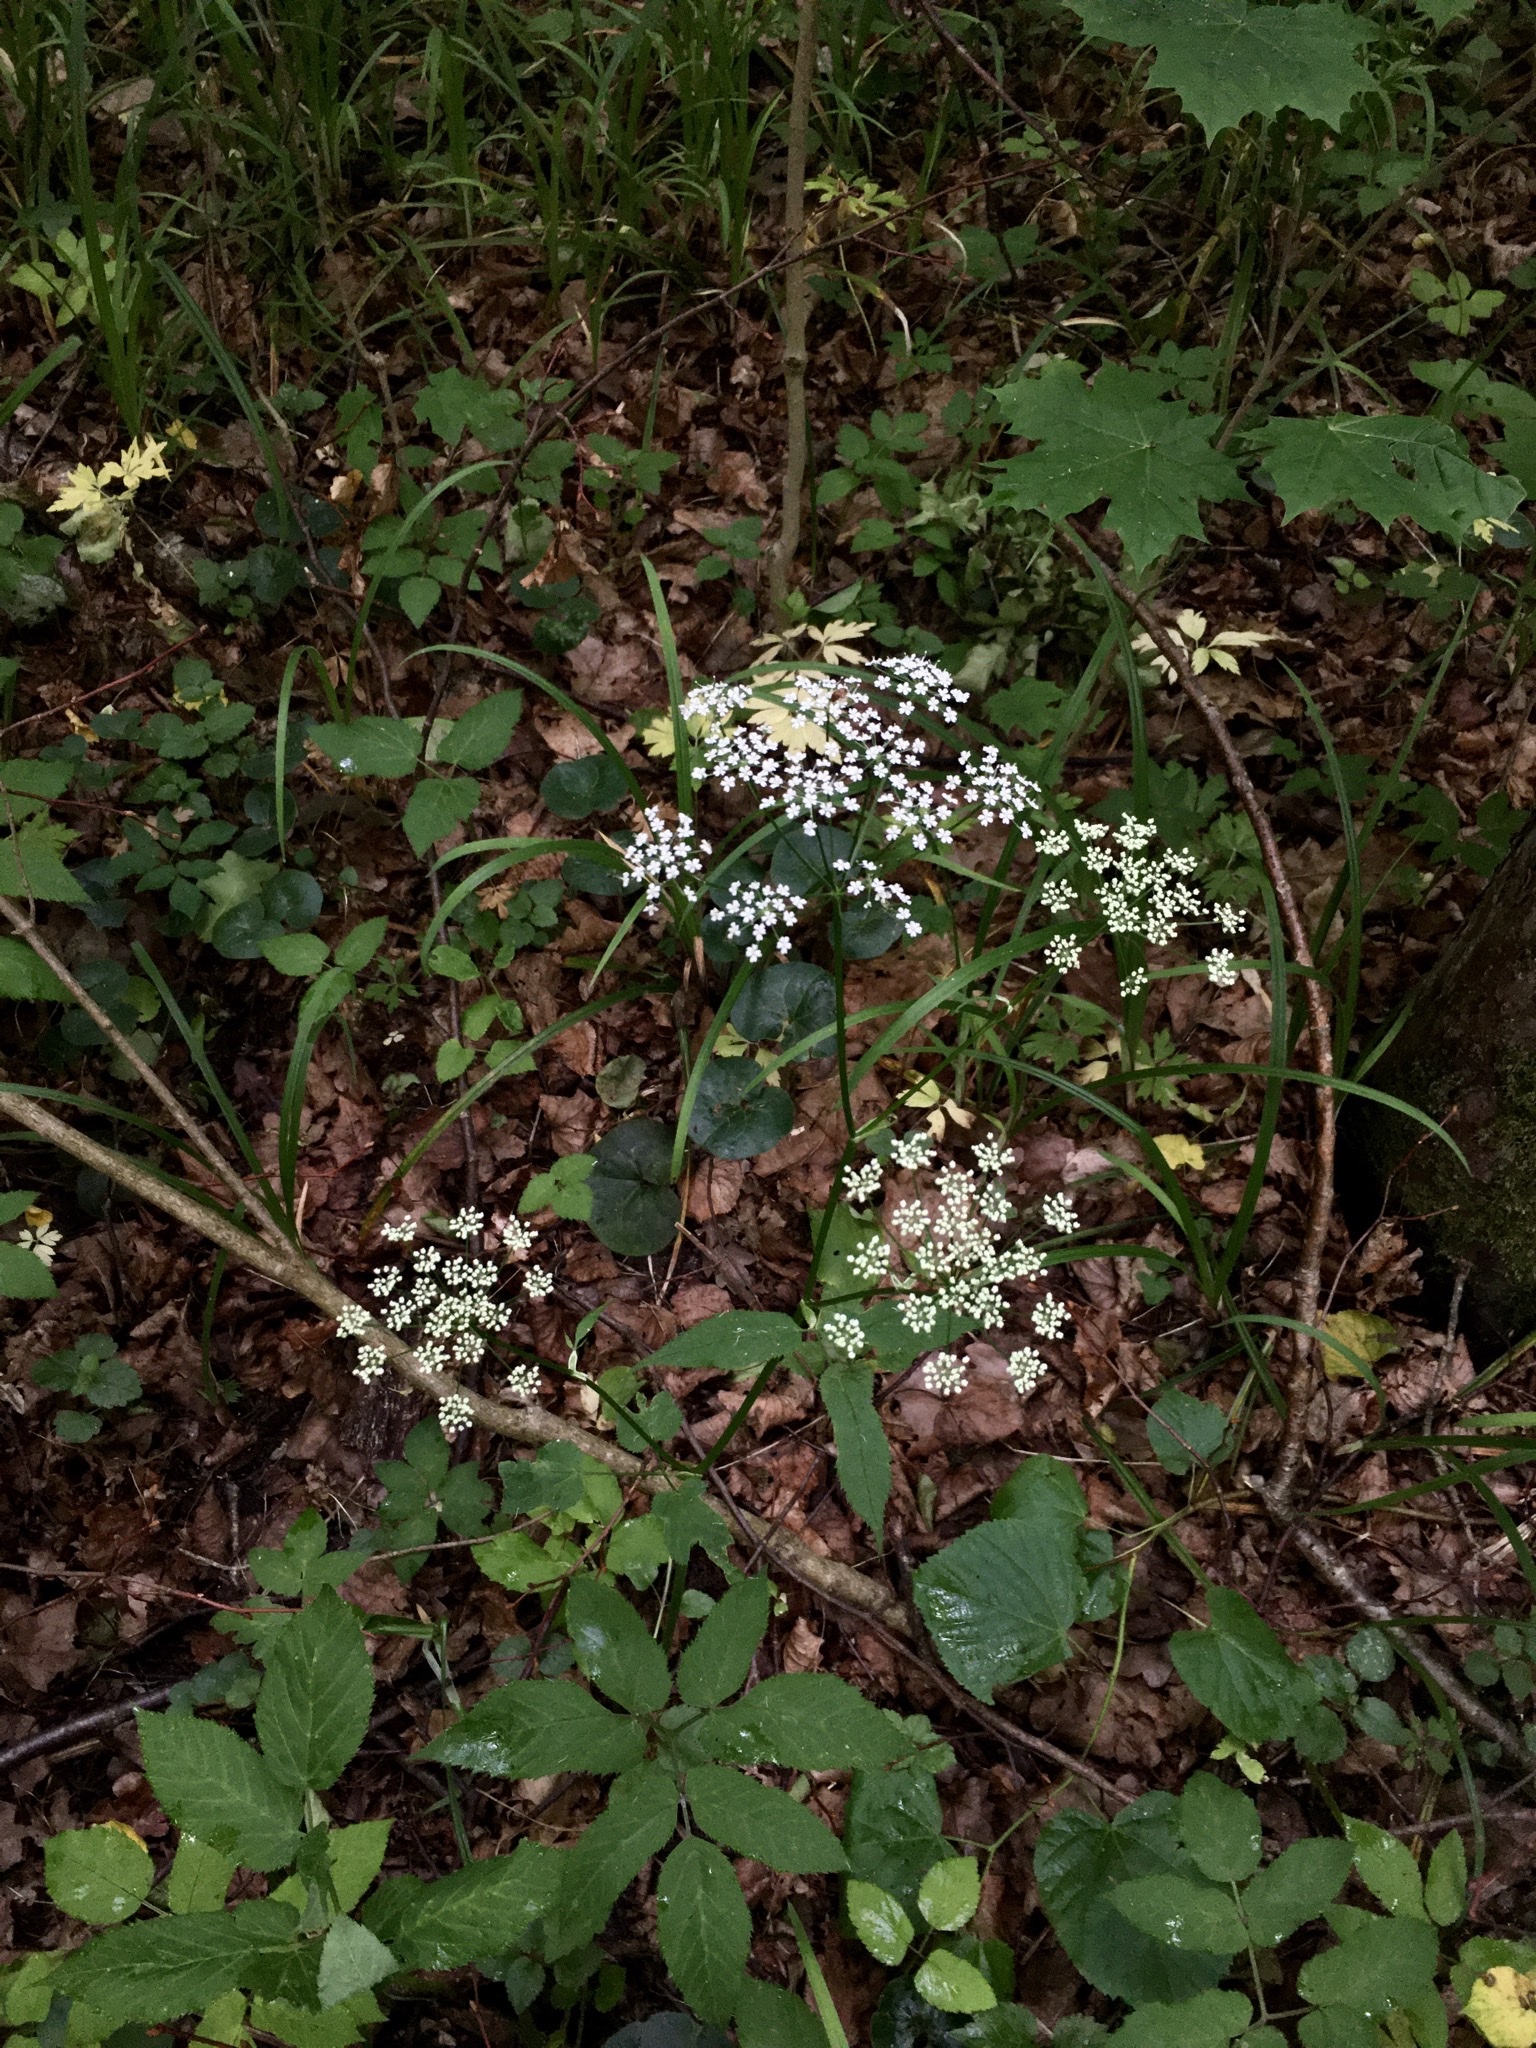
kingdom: Plantae
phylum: Tracheophyta
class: Magnoliopsida
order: Apiales
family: Apiaceae
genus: Aegopodium
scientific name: Aegopodium podagraria
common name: Ground-elder
